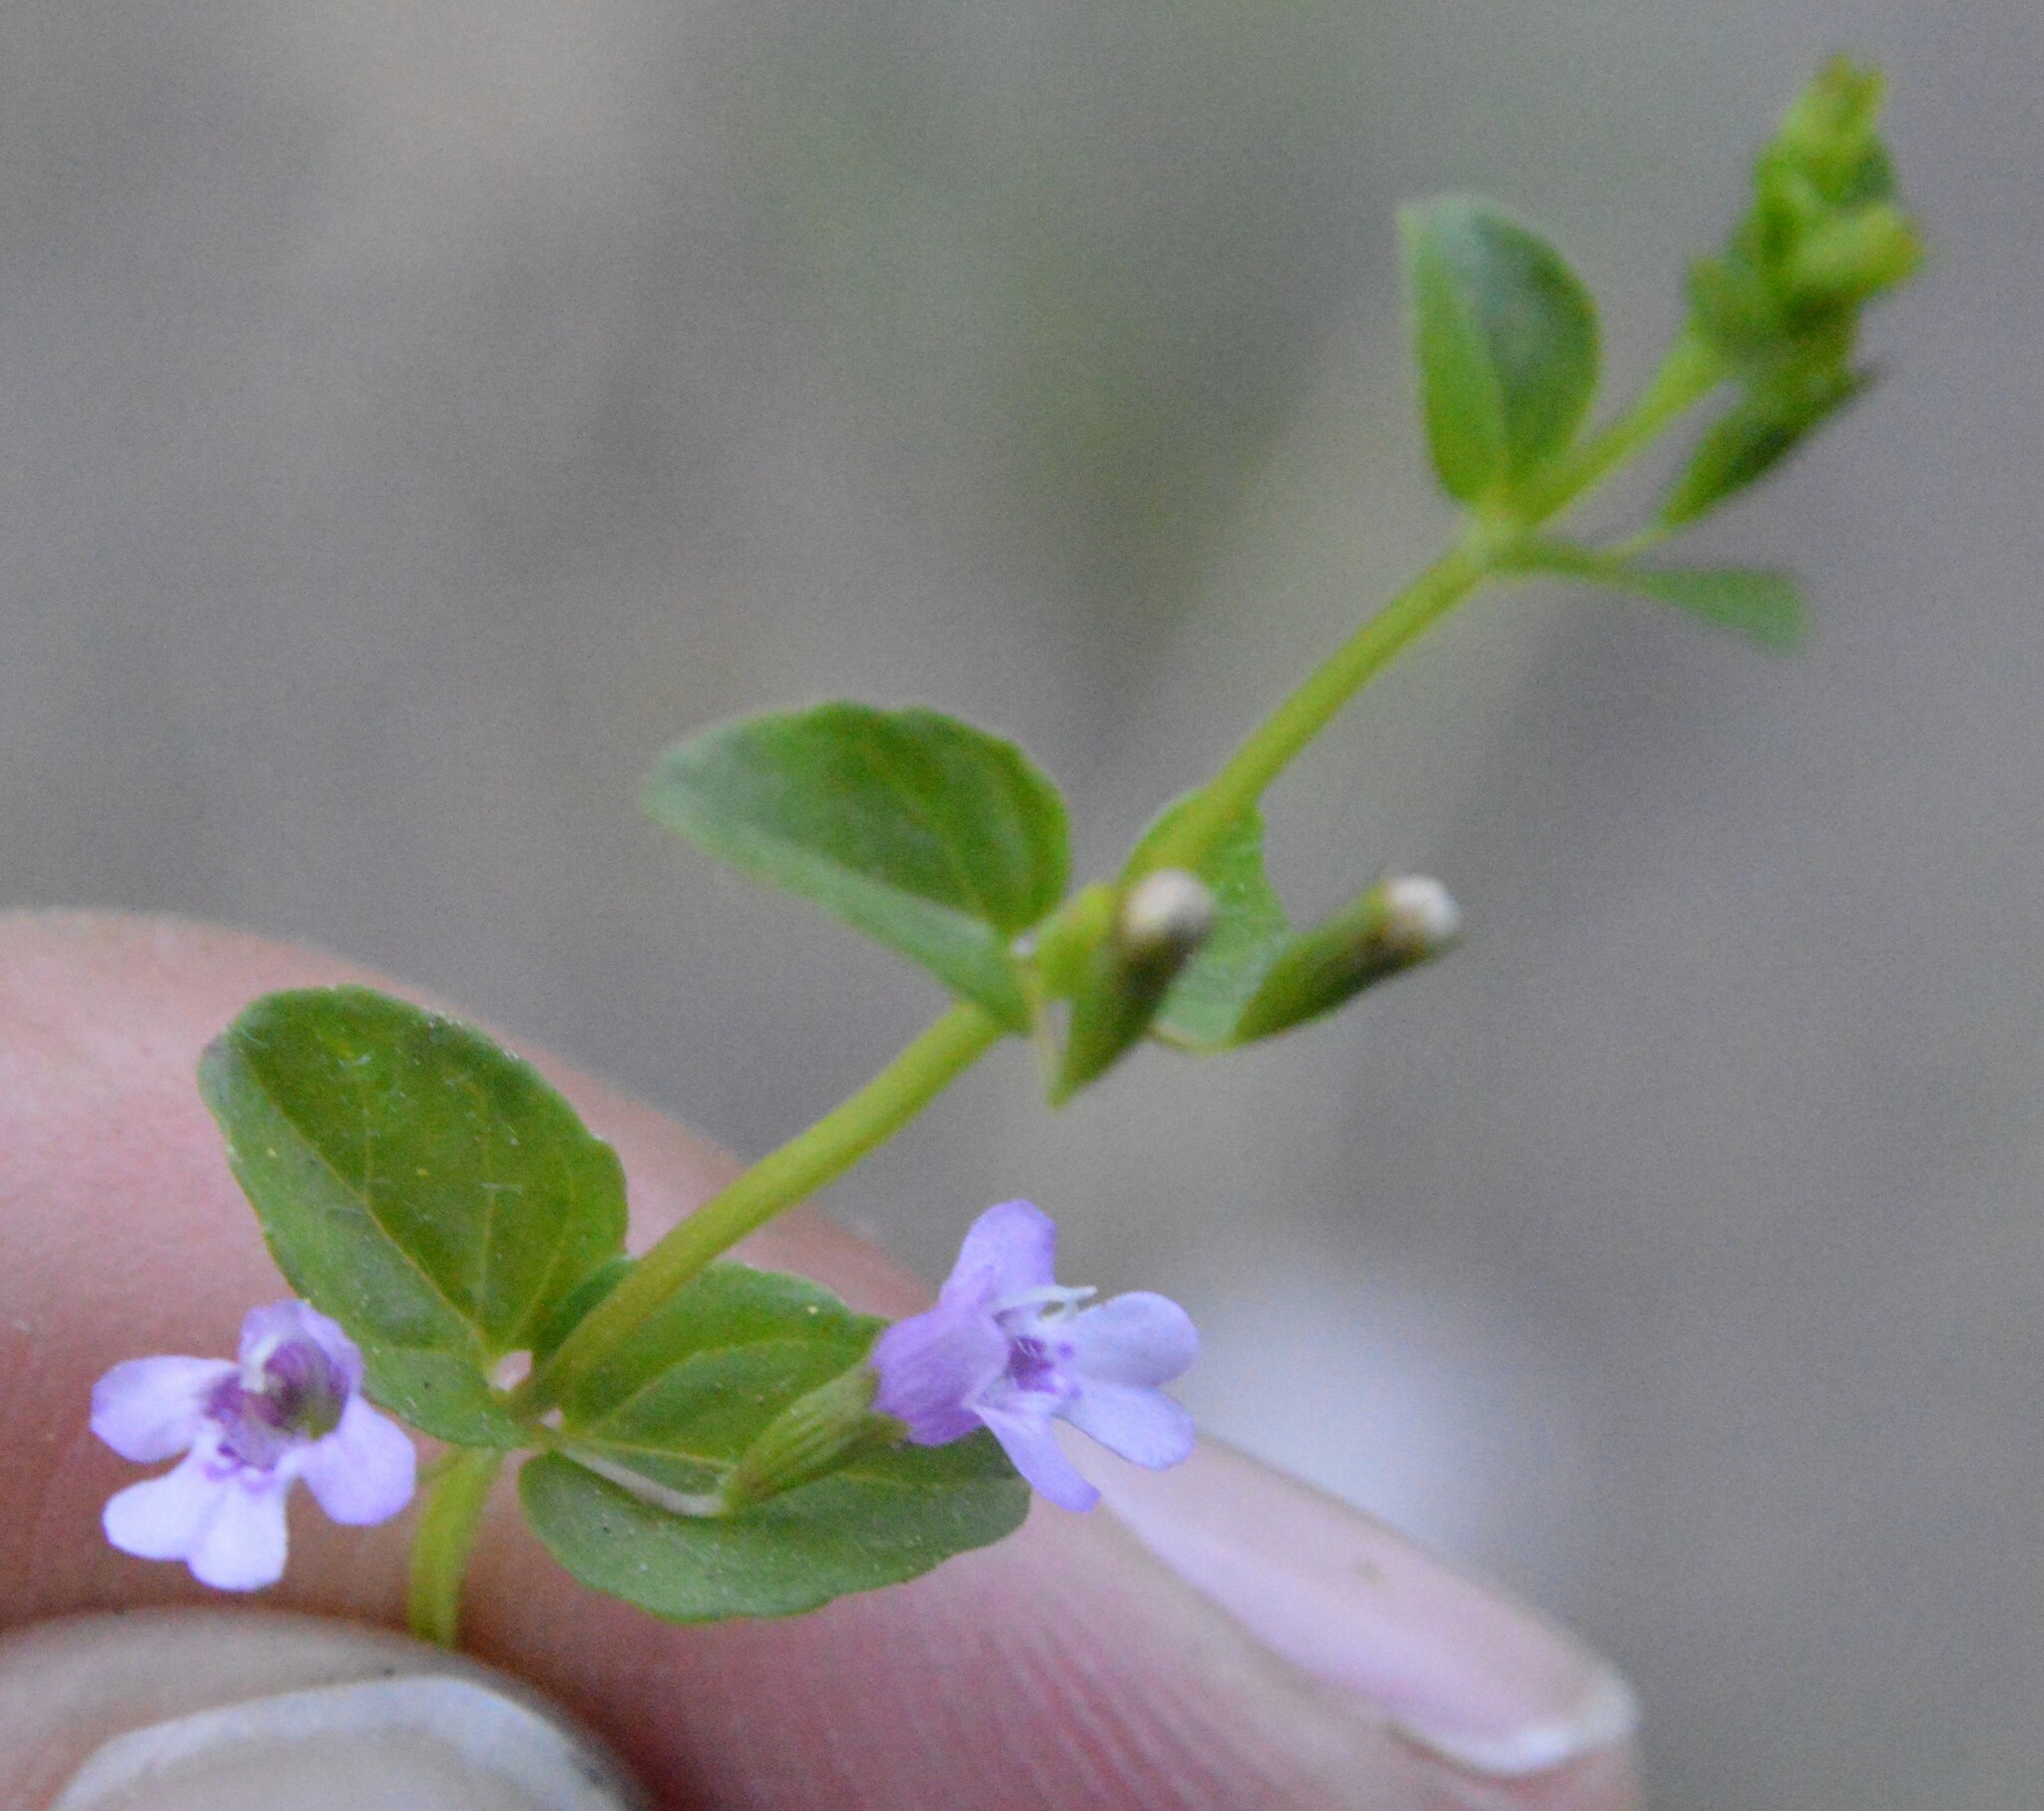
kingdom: Plantae
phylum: Tracheophyta
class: Magnoliopsida
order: Lamiales
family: Lamiaceae
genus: Clinopodium
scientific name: Clinopodium brownei
